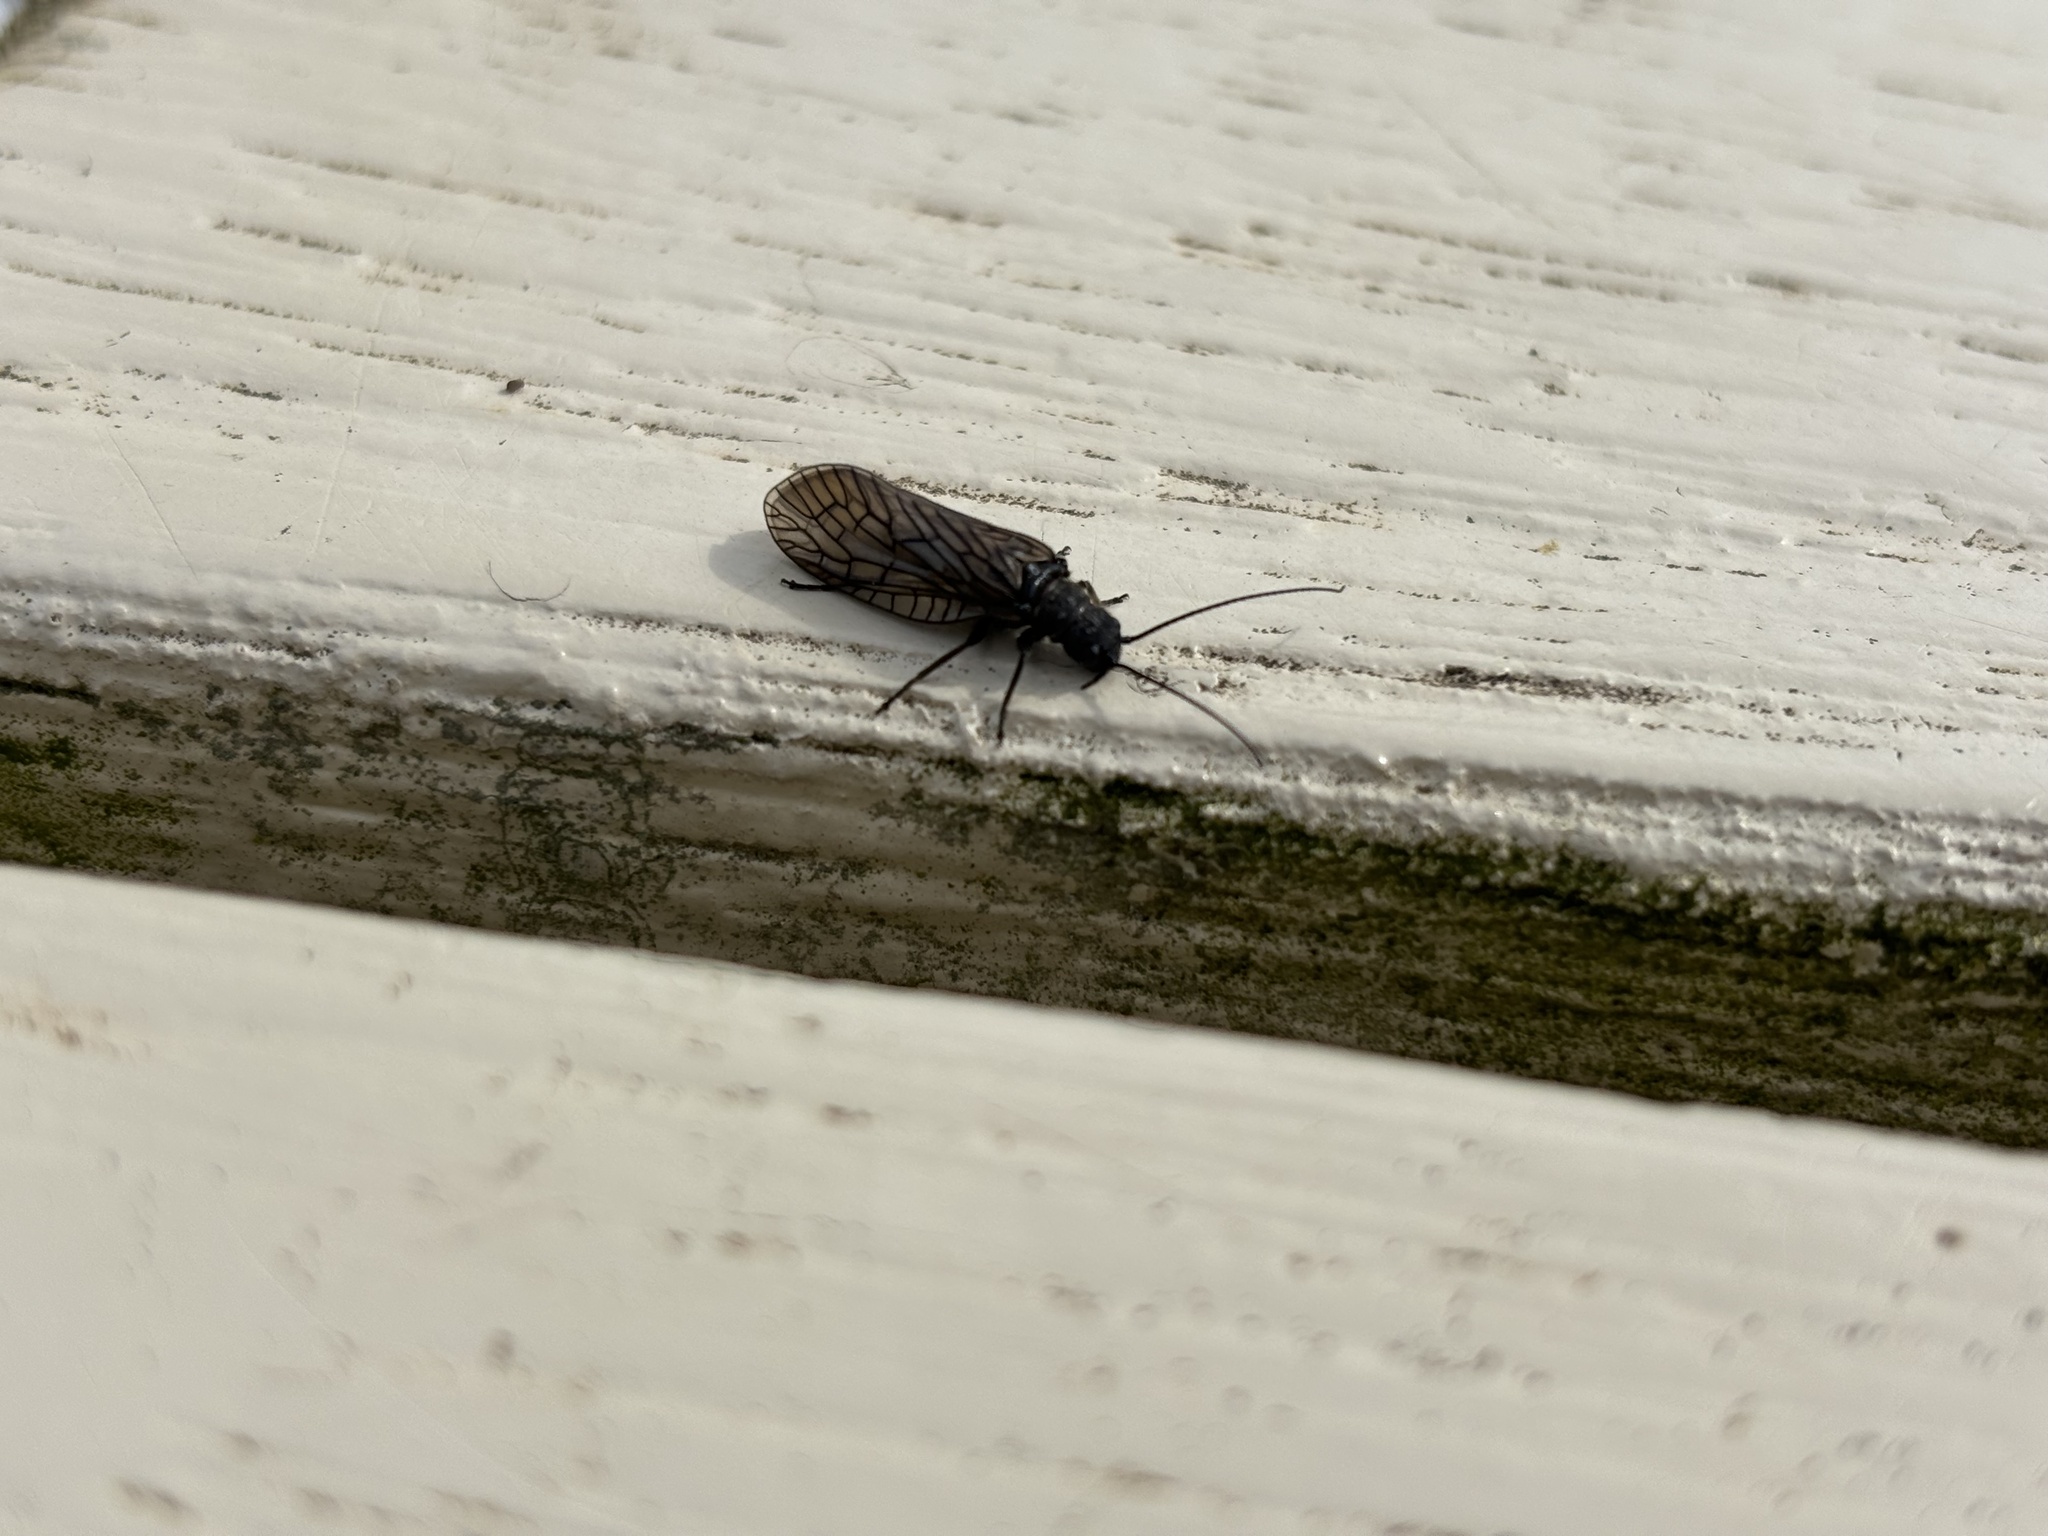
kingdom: Animalia
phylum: Arthropoda
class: Insecta
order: Megaloptera
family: Sialidae
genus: Sialis
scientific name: Sialis
